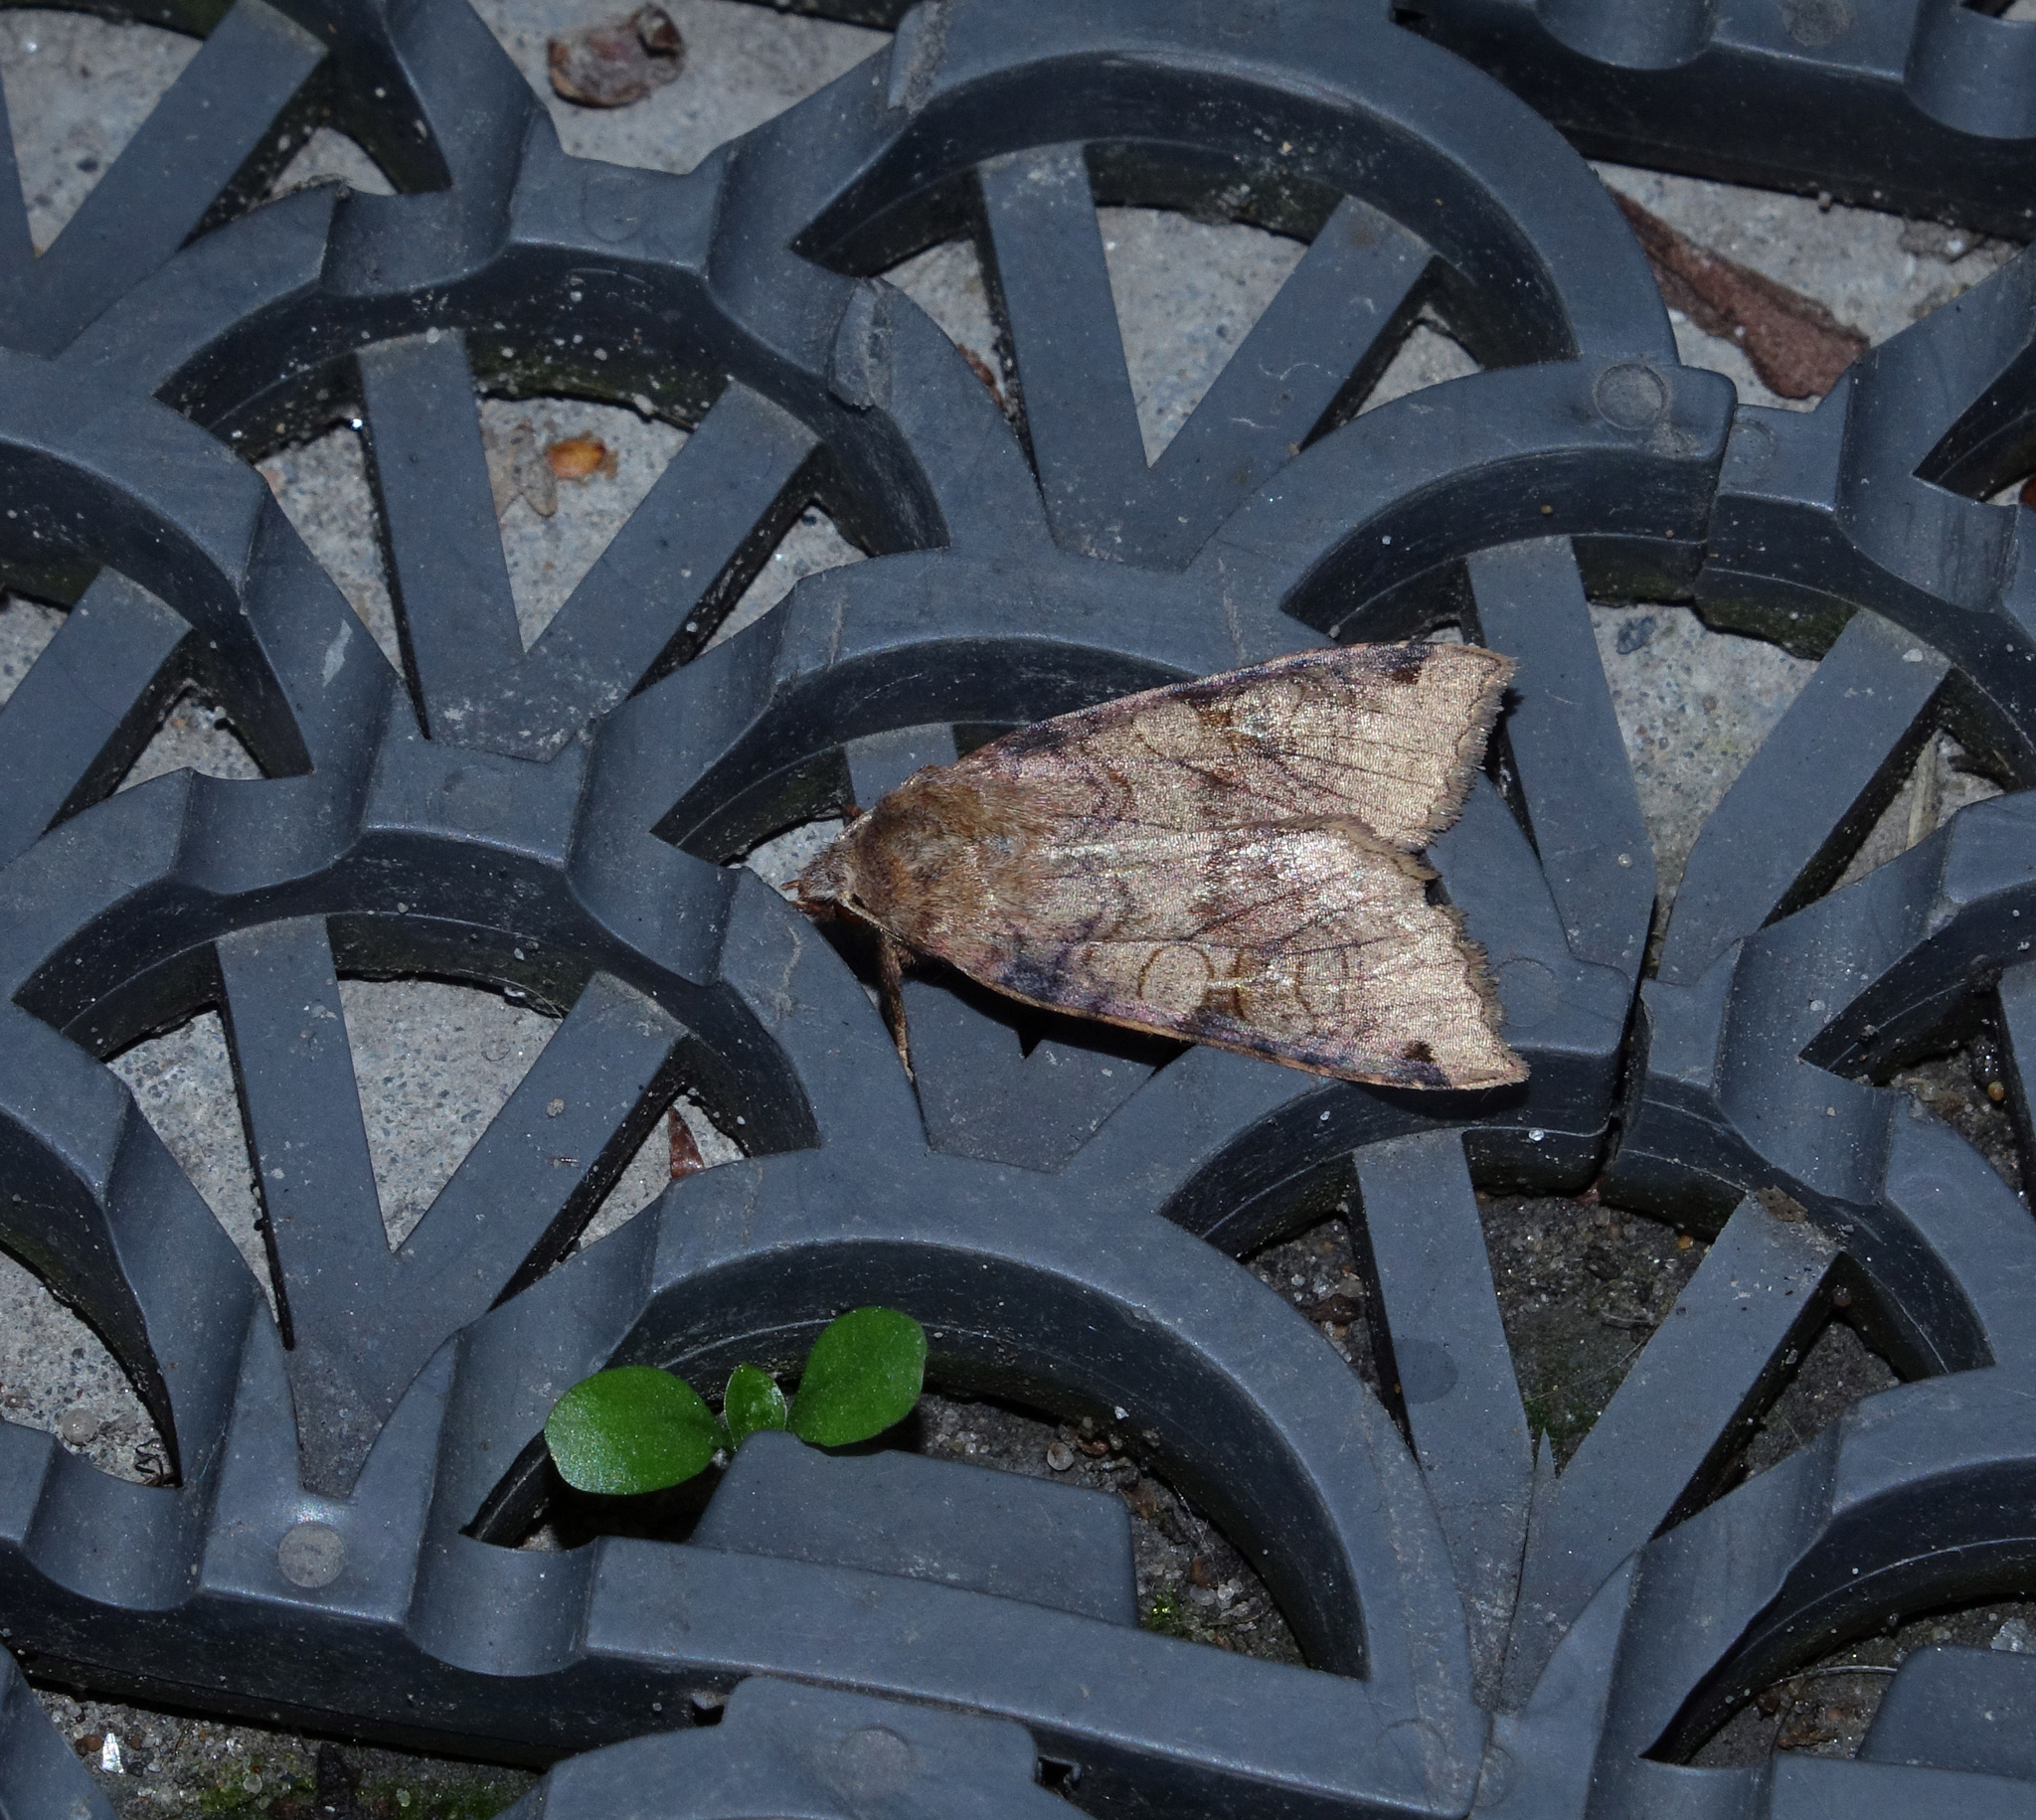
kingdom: Animalia
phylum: Arthropoda
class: Insecta
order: Lepidoptera
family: Noctuidae
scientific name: Noctuidae
